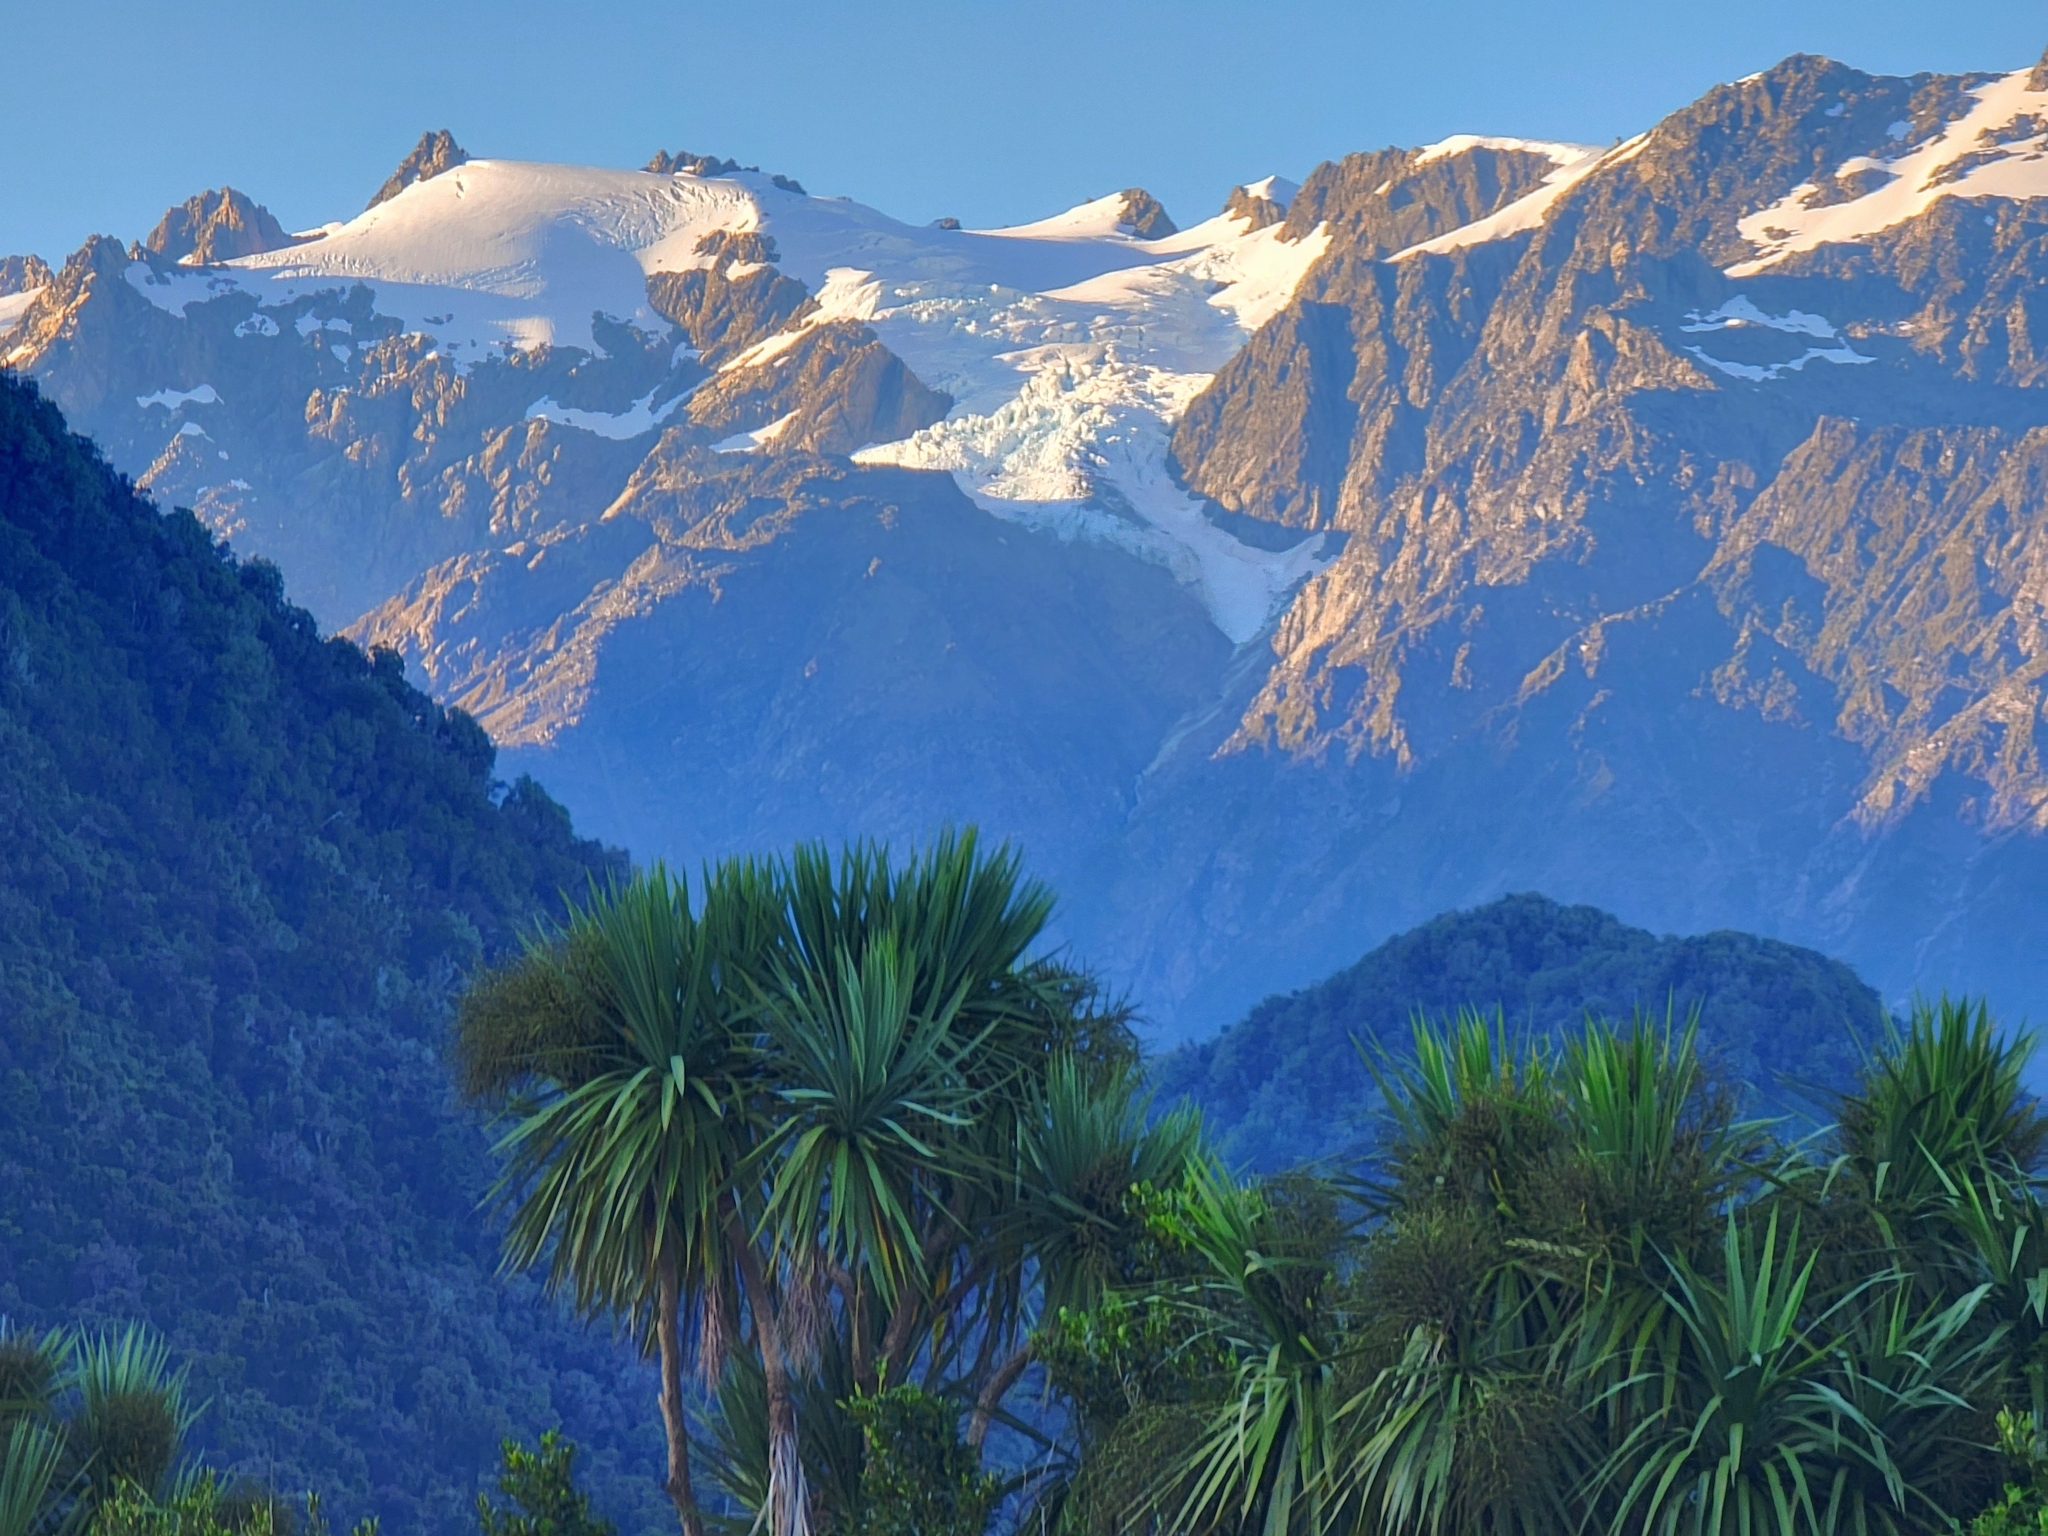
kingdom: Plantae
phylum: Tracheophyta
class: Liliopsida
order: Asparagales
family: Asparagaceae
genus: Cordyline
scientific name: Cordyline australis
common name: Cabbage-palm
